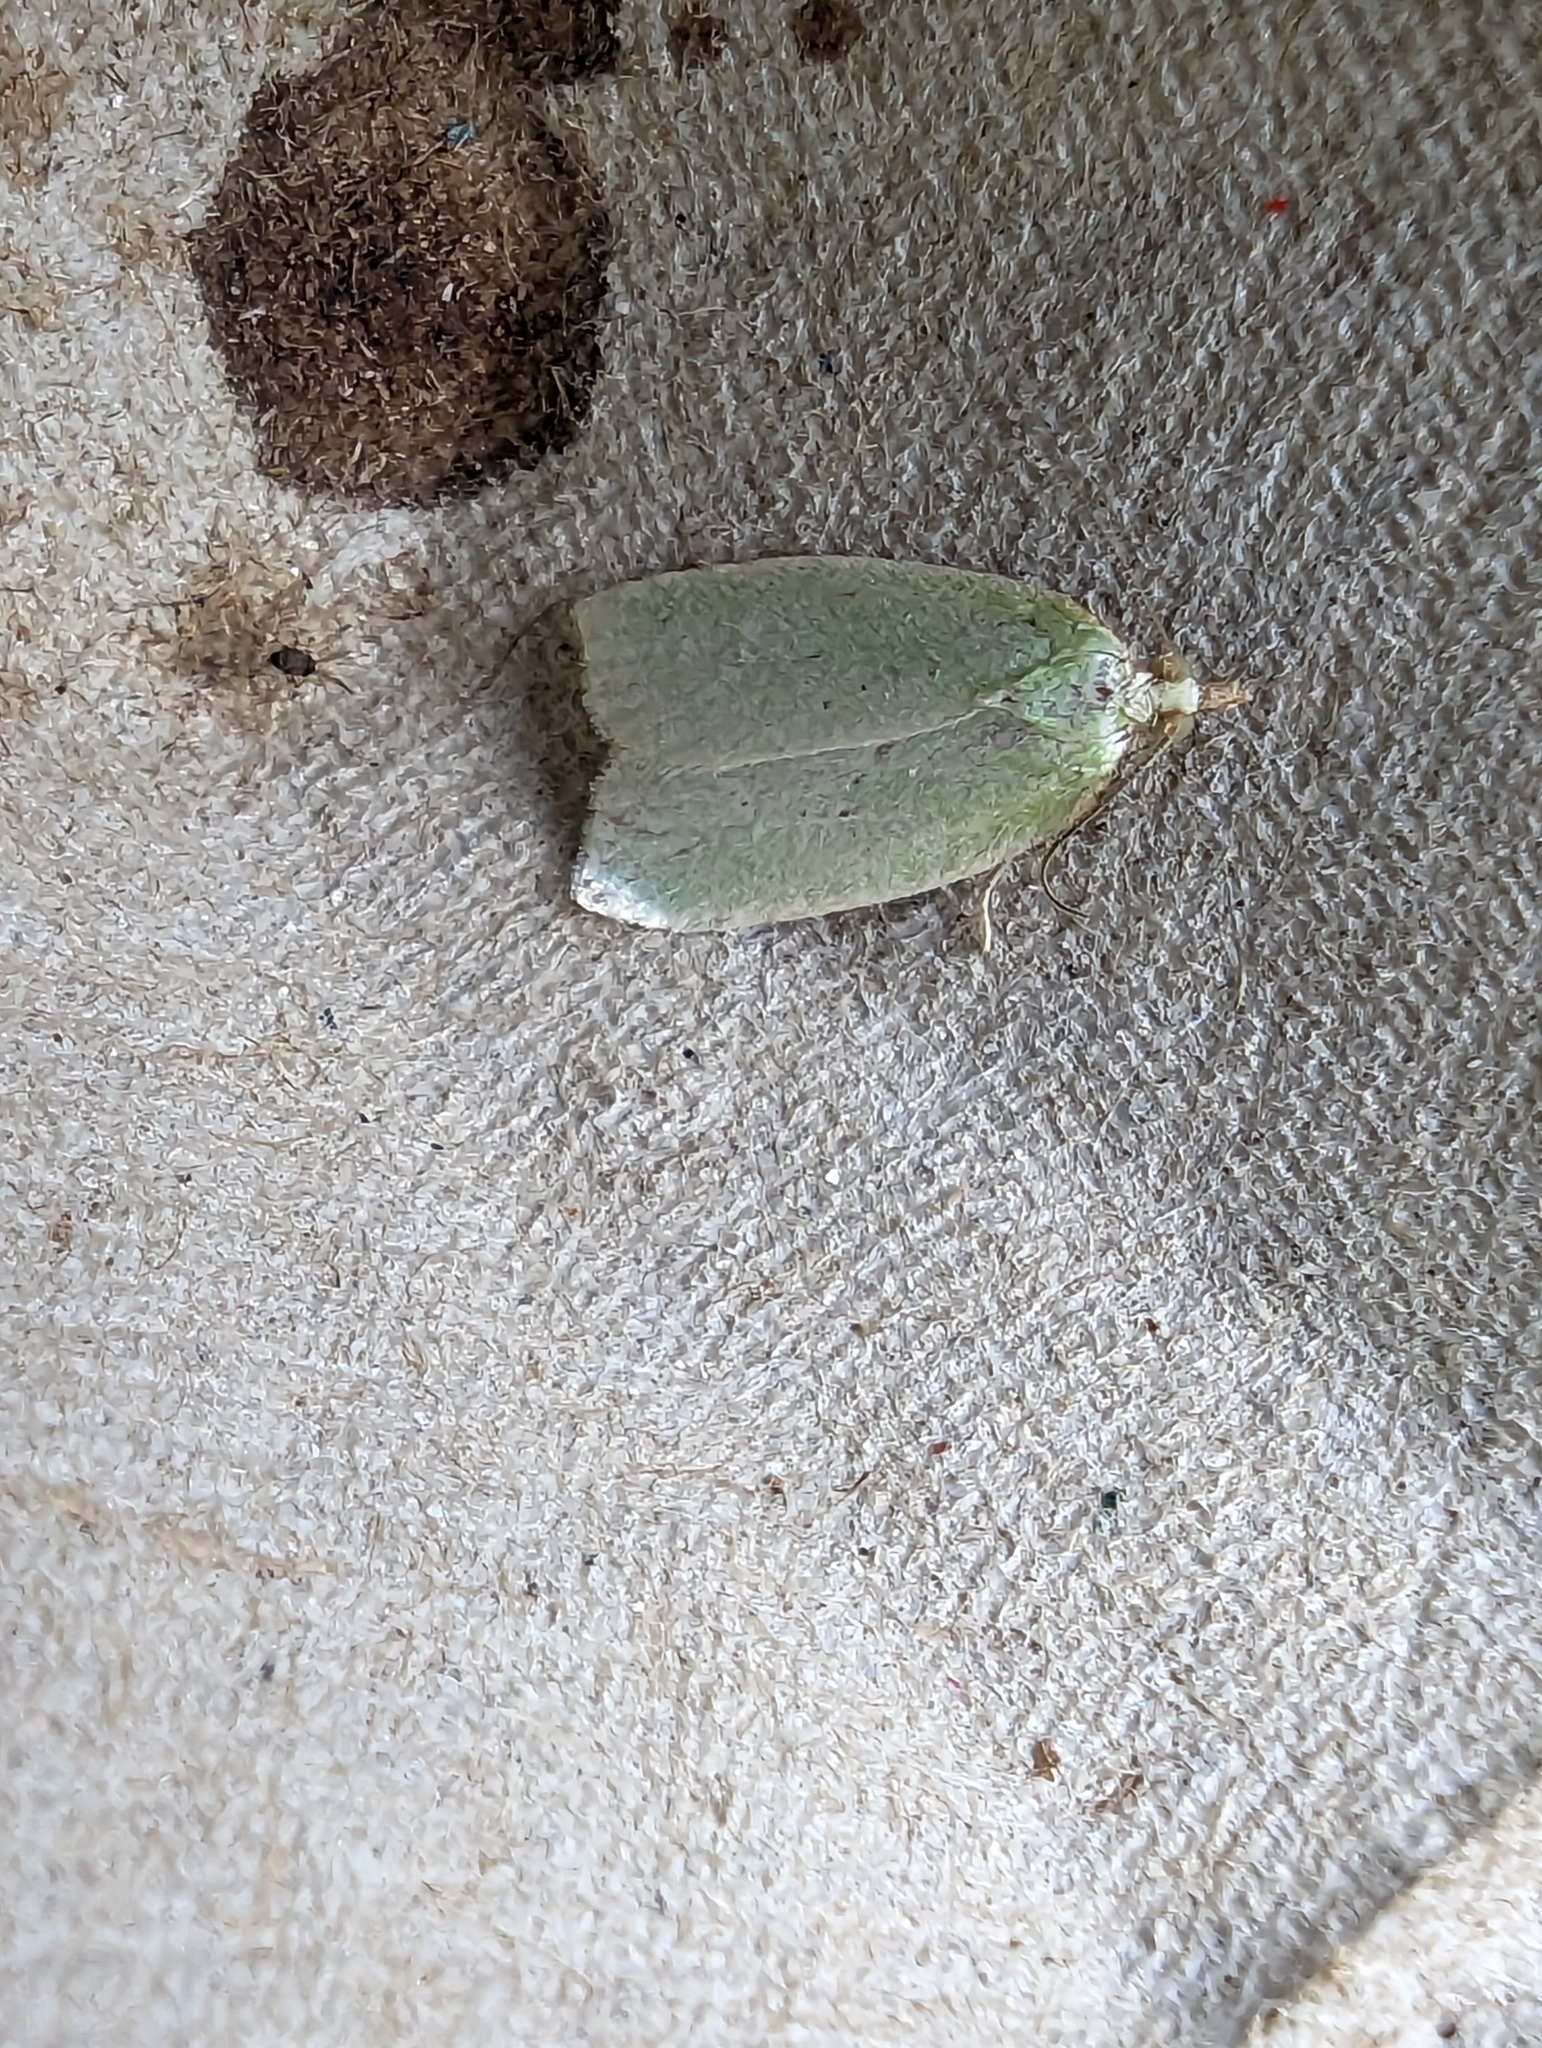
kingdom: Animalia
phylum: Arthropoda
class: Insecta
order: Lepidoptera
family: Tortricidae
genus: Tortrix
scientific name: Tortrix viridana
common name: Green oak tortrix
